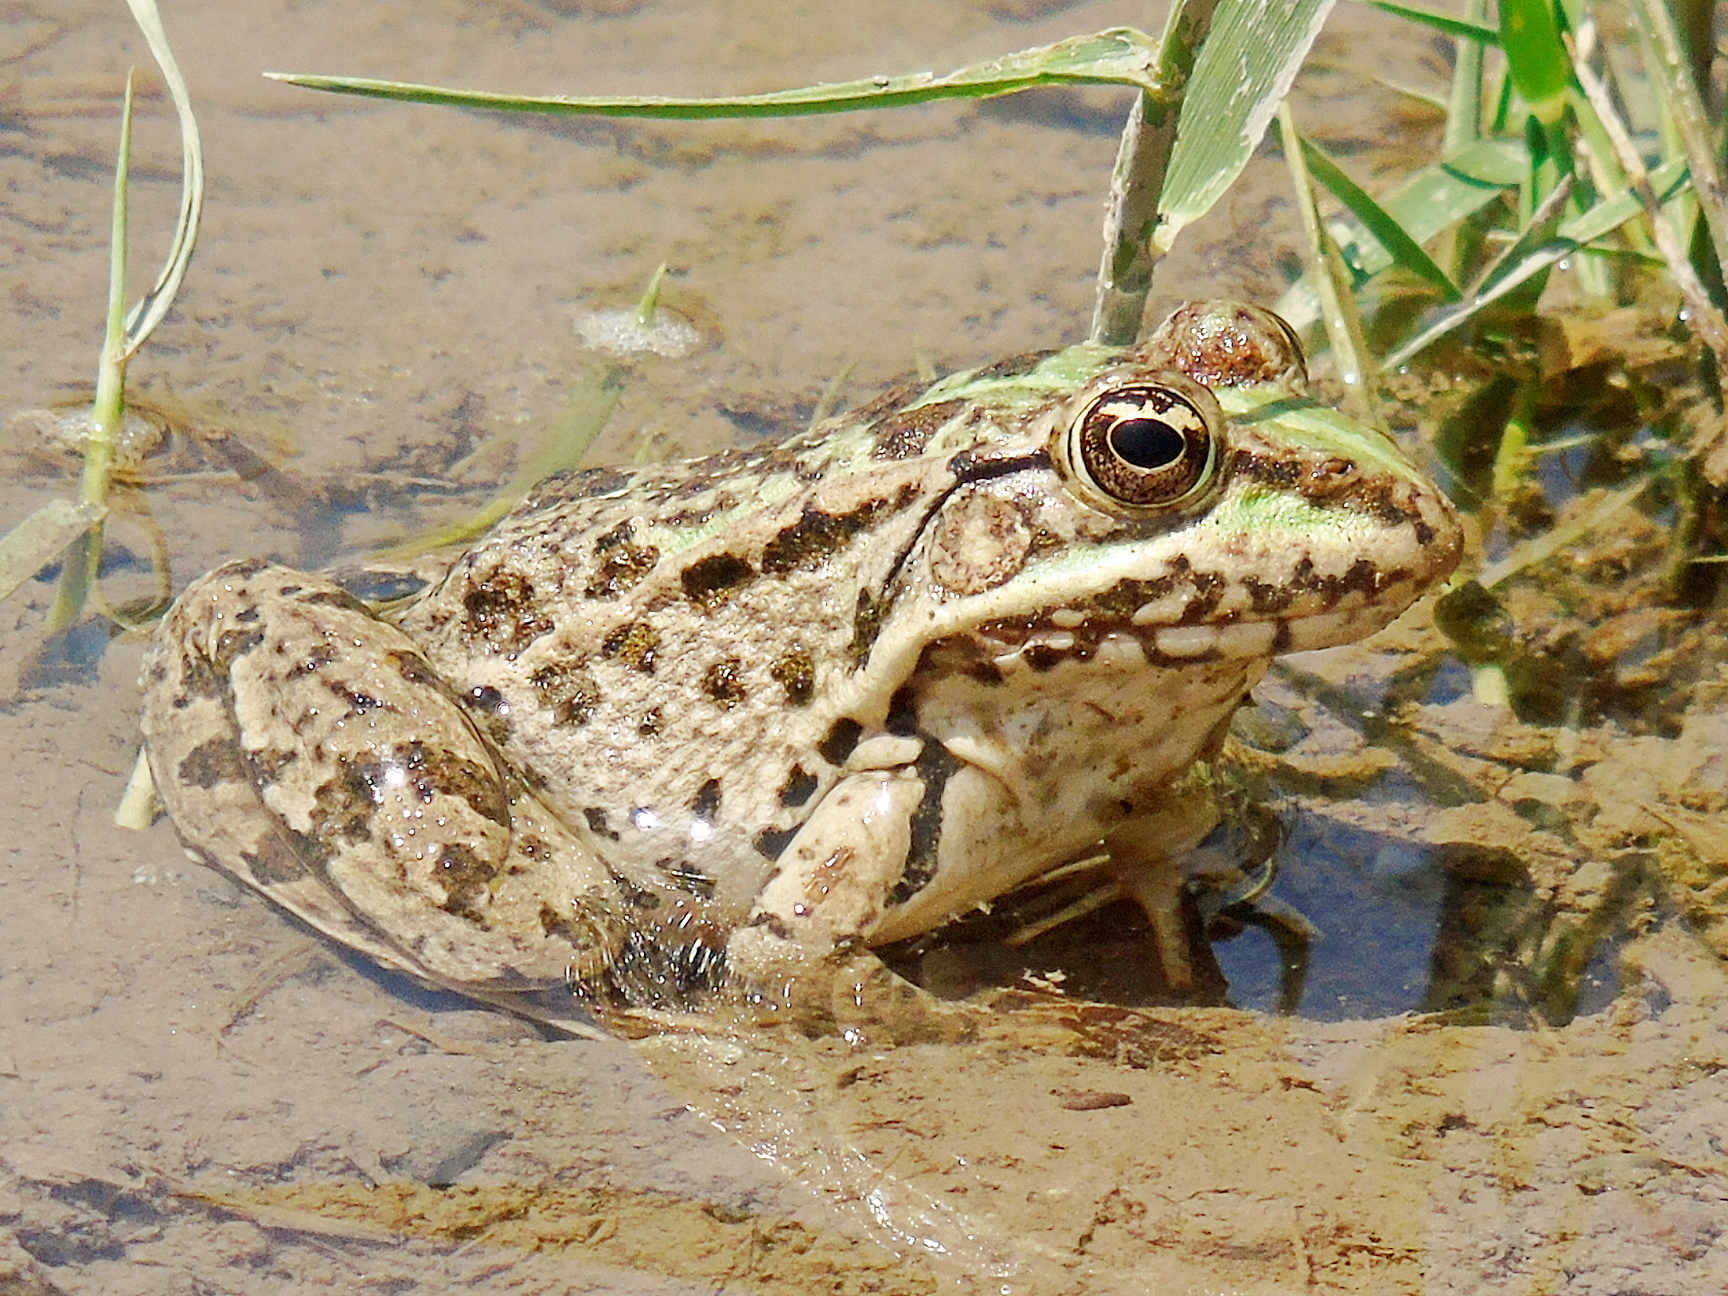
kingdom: Animalia
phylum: Chordata
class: Amphibia
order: Anura
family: Ranidae
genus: Pelophylax
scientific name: Pelophylax ridibundus
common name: Marsh frog
